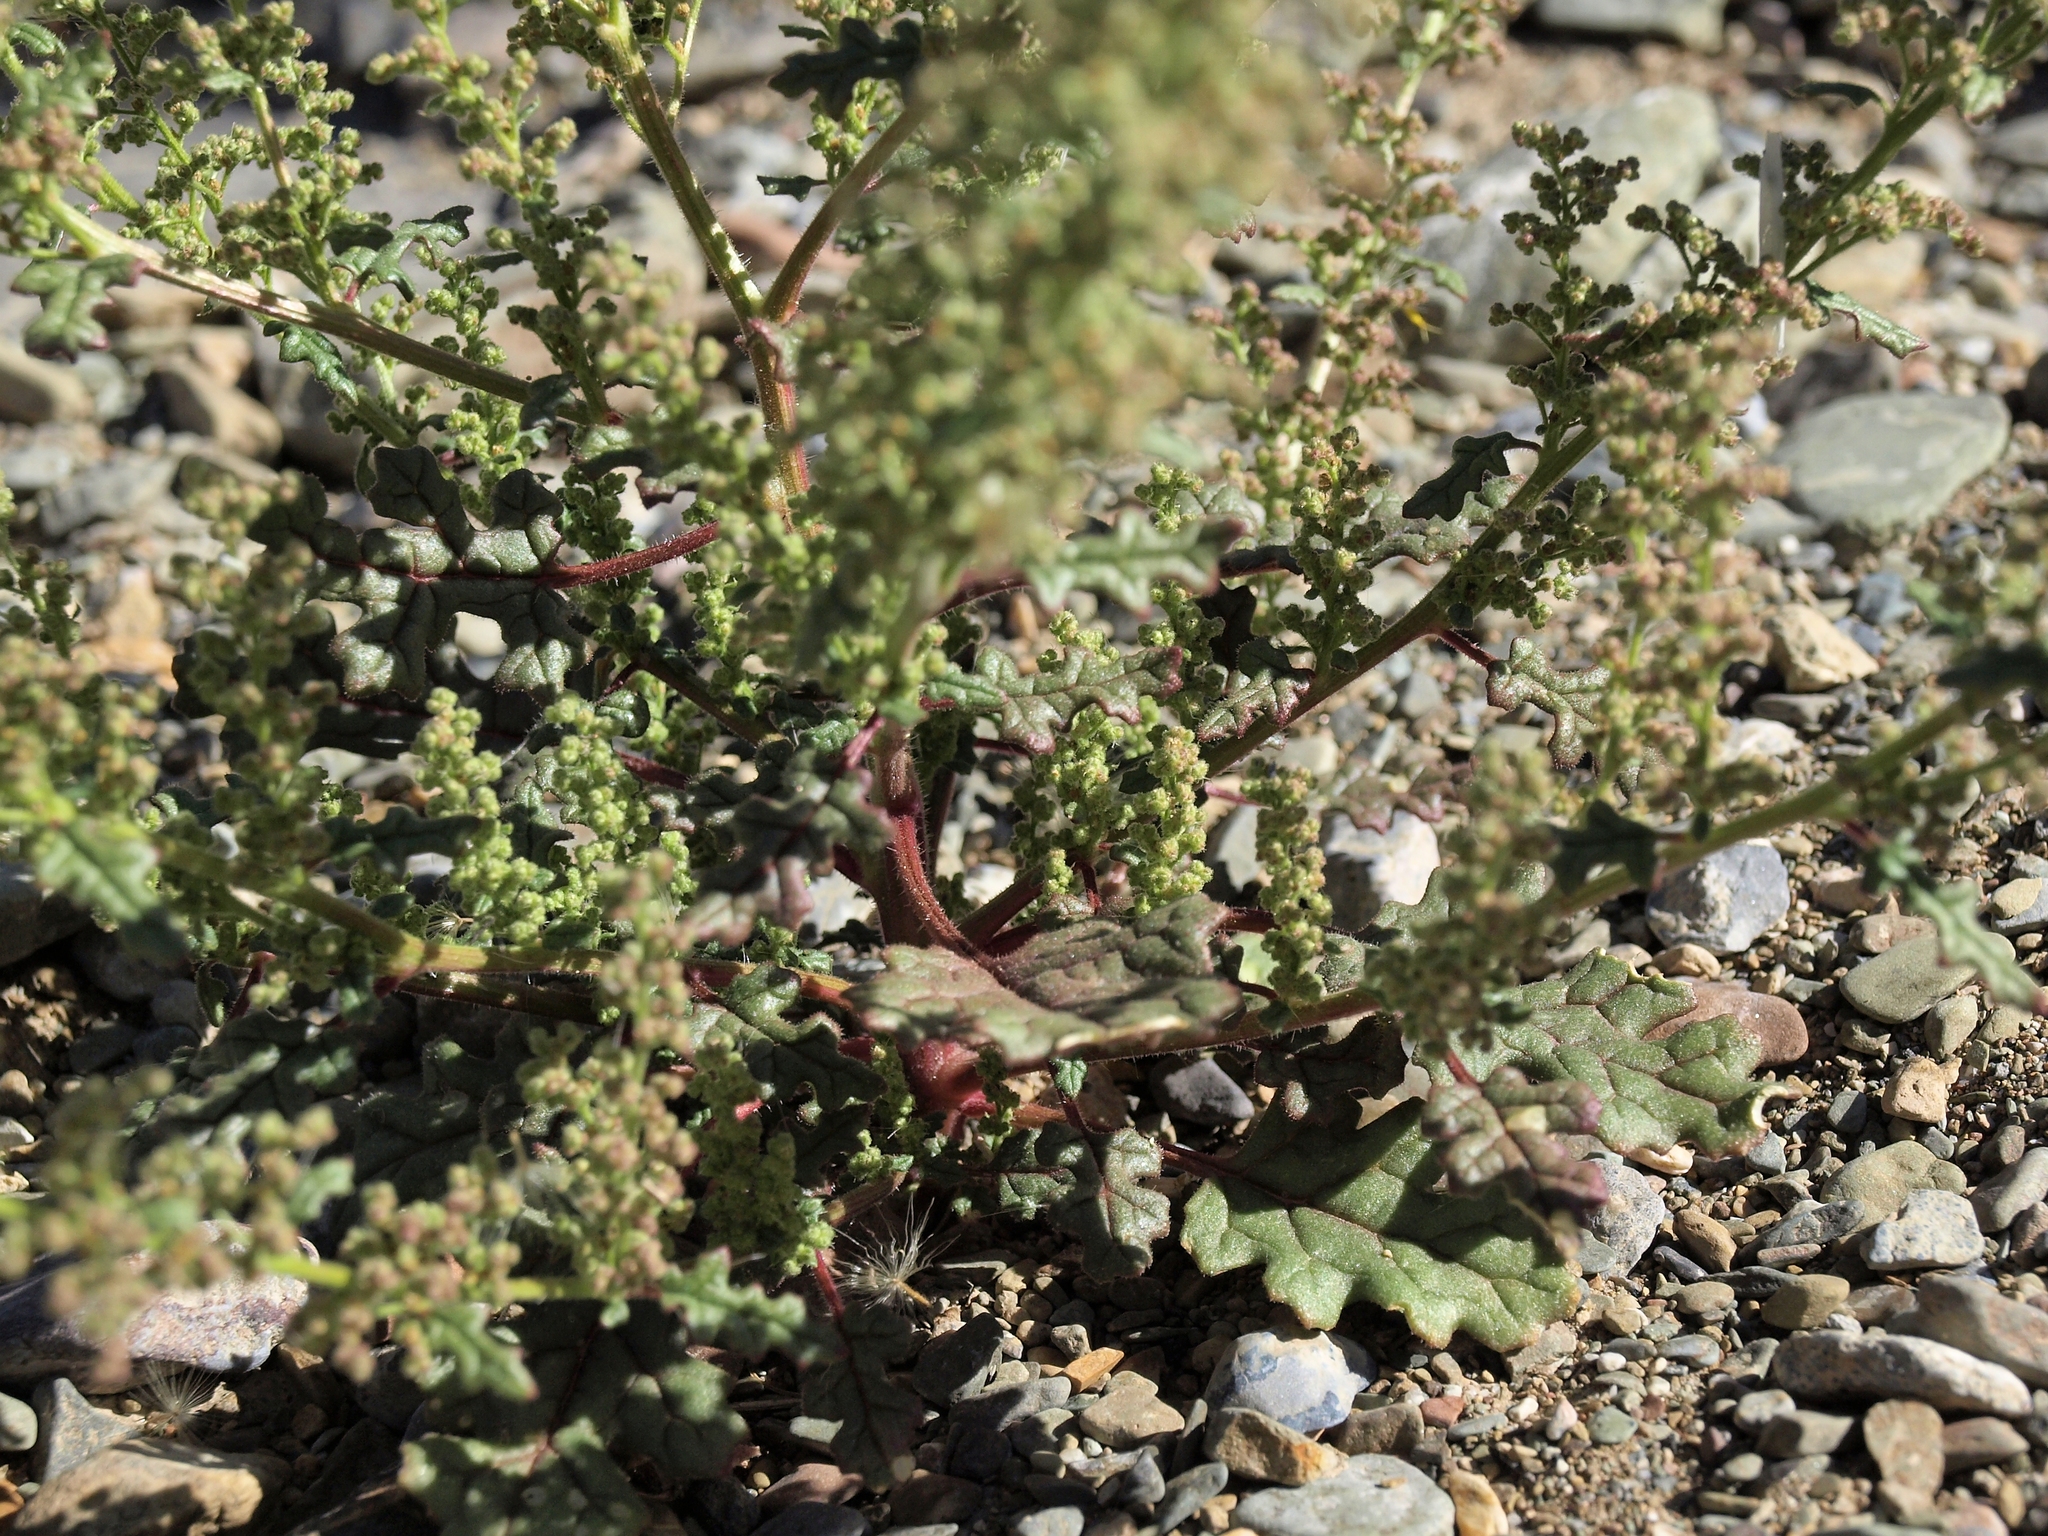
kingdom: Plantae
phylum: Tracheophyta
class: Magnoliopsida
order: Caryophyllales
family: Amaranthaceae
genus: Dysphania
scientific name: Dysphania botrys
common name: Feather-geranium
